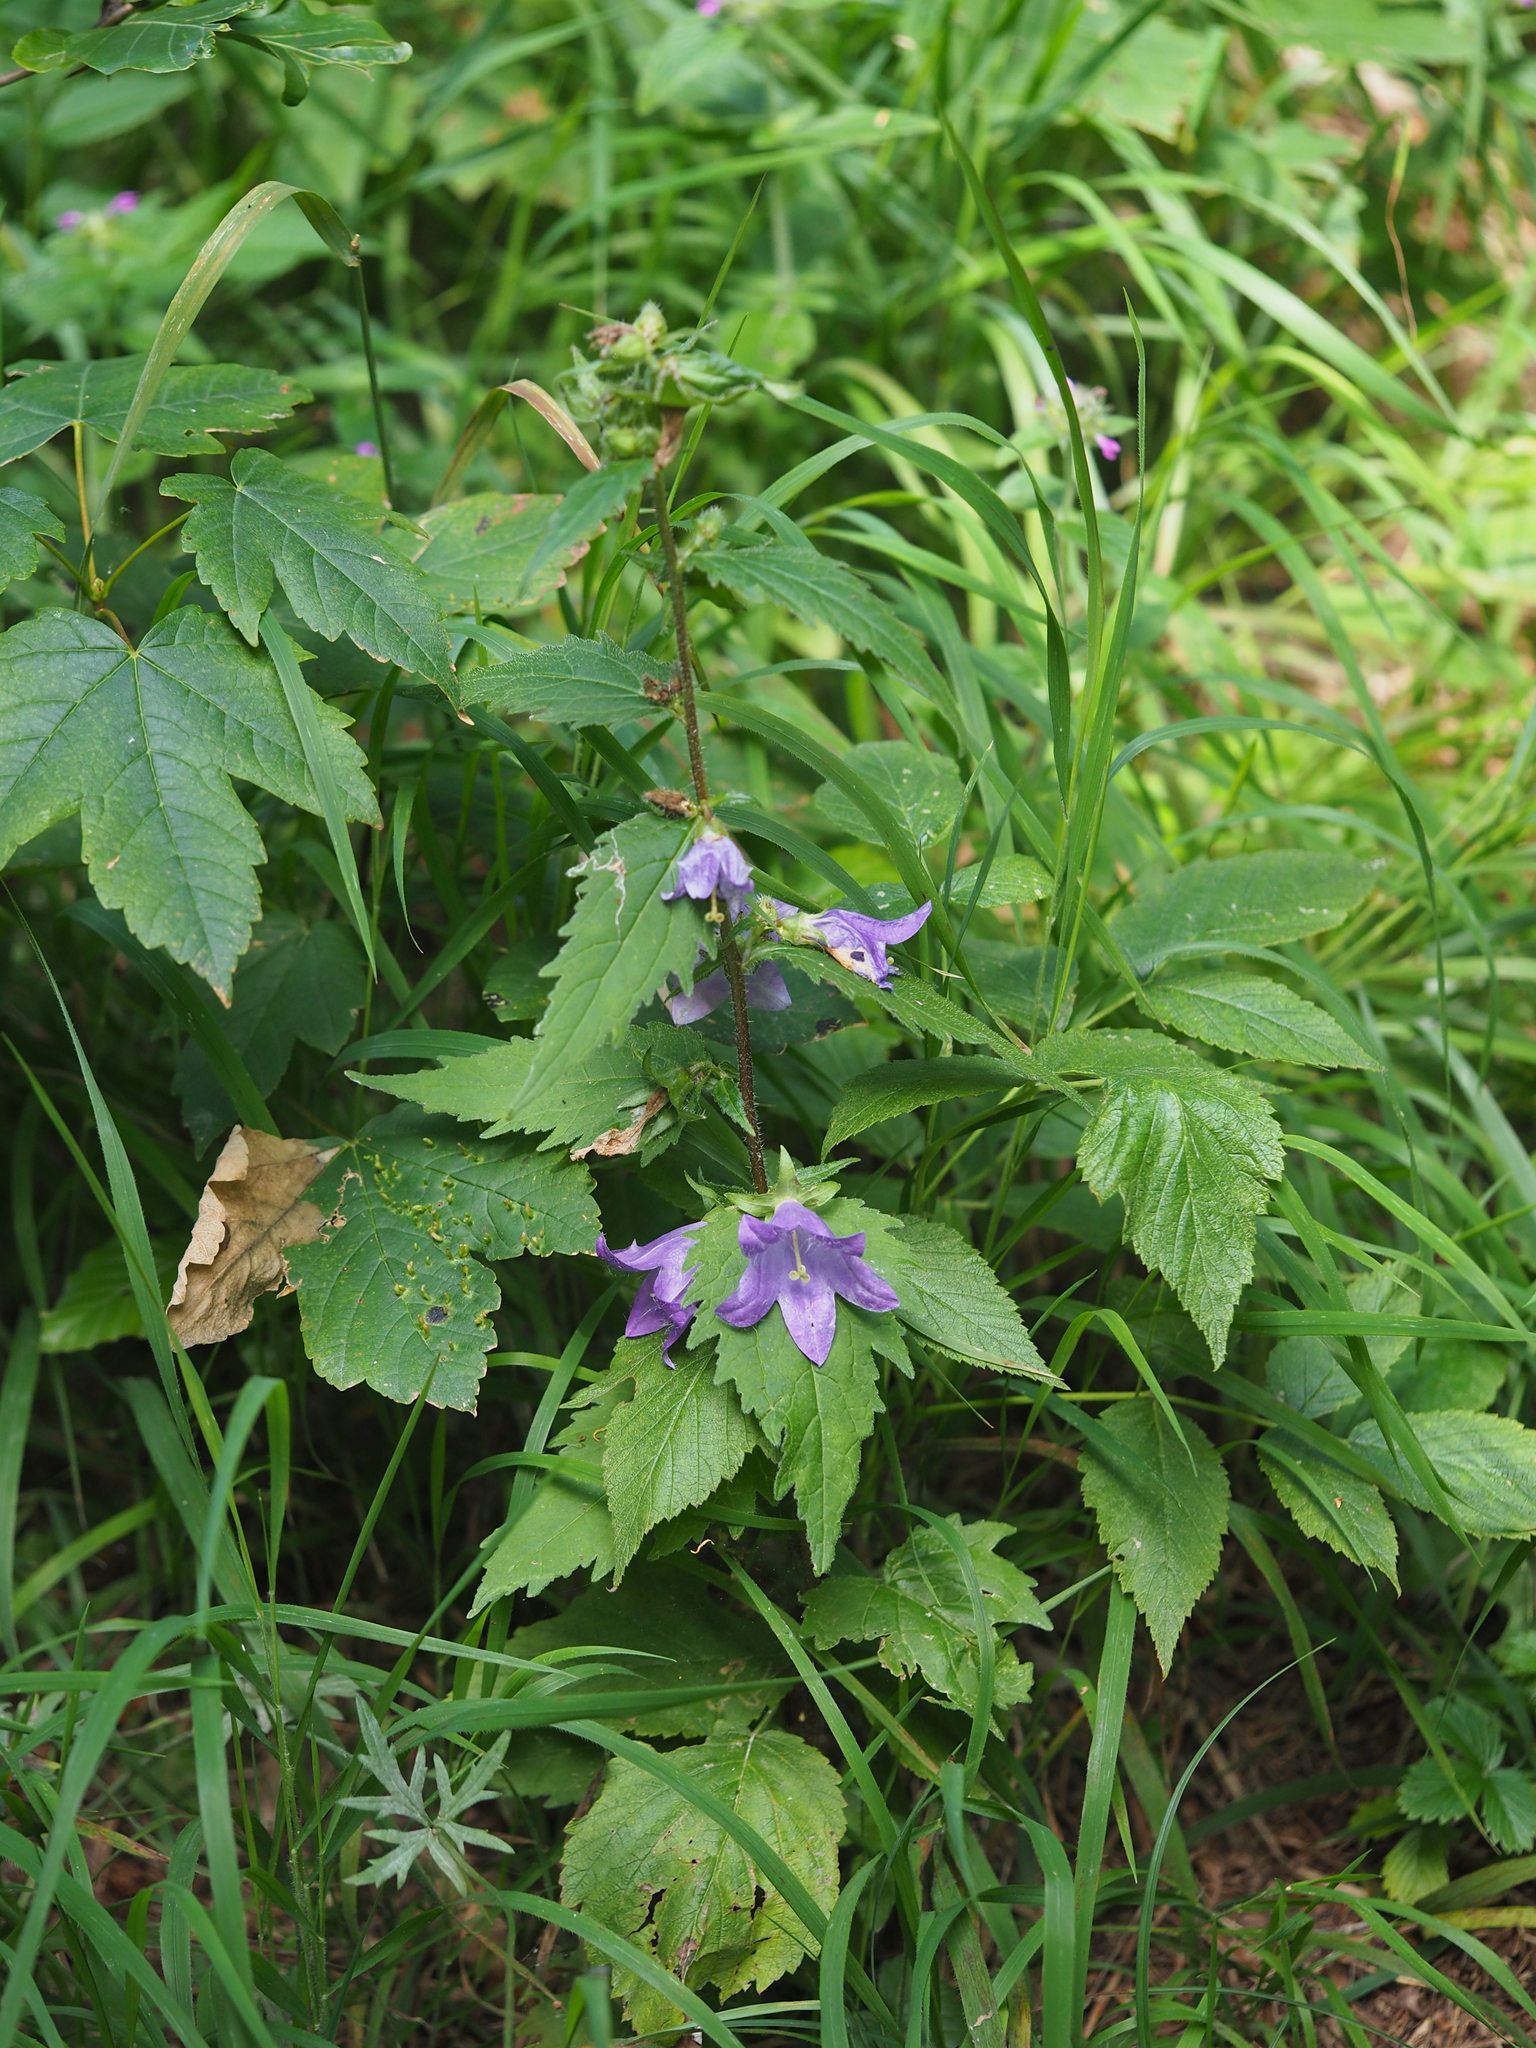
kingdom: Plantae
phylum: Tracheophyta
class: Magnoliopsida
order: Asterales
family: Campanulaceae
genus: Campanula
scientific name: Campanula trachelium
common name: Nettle-leaved bellflower
